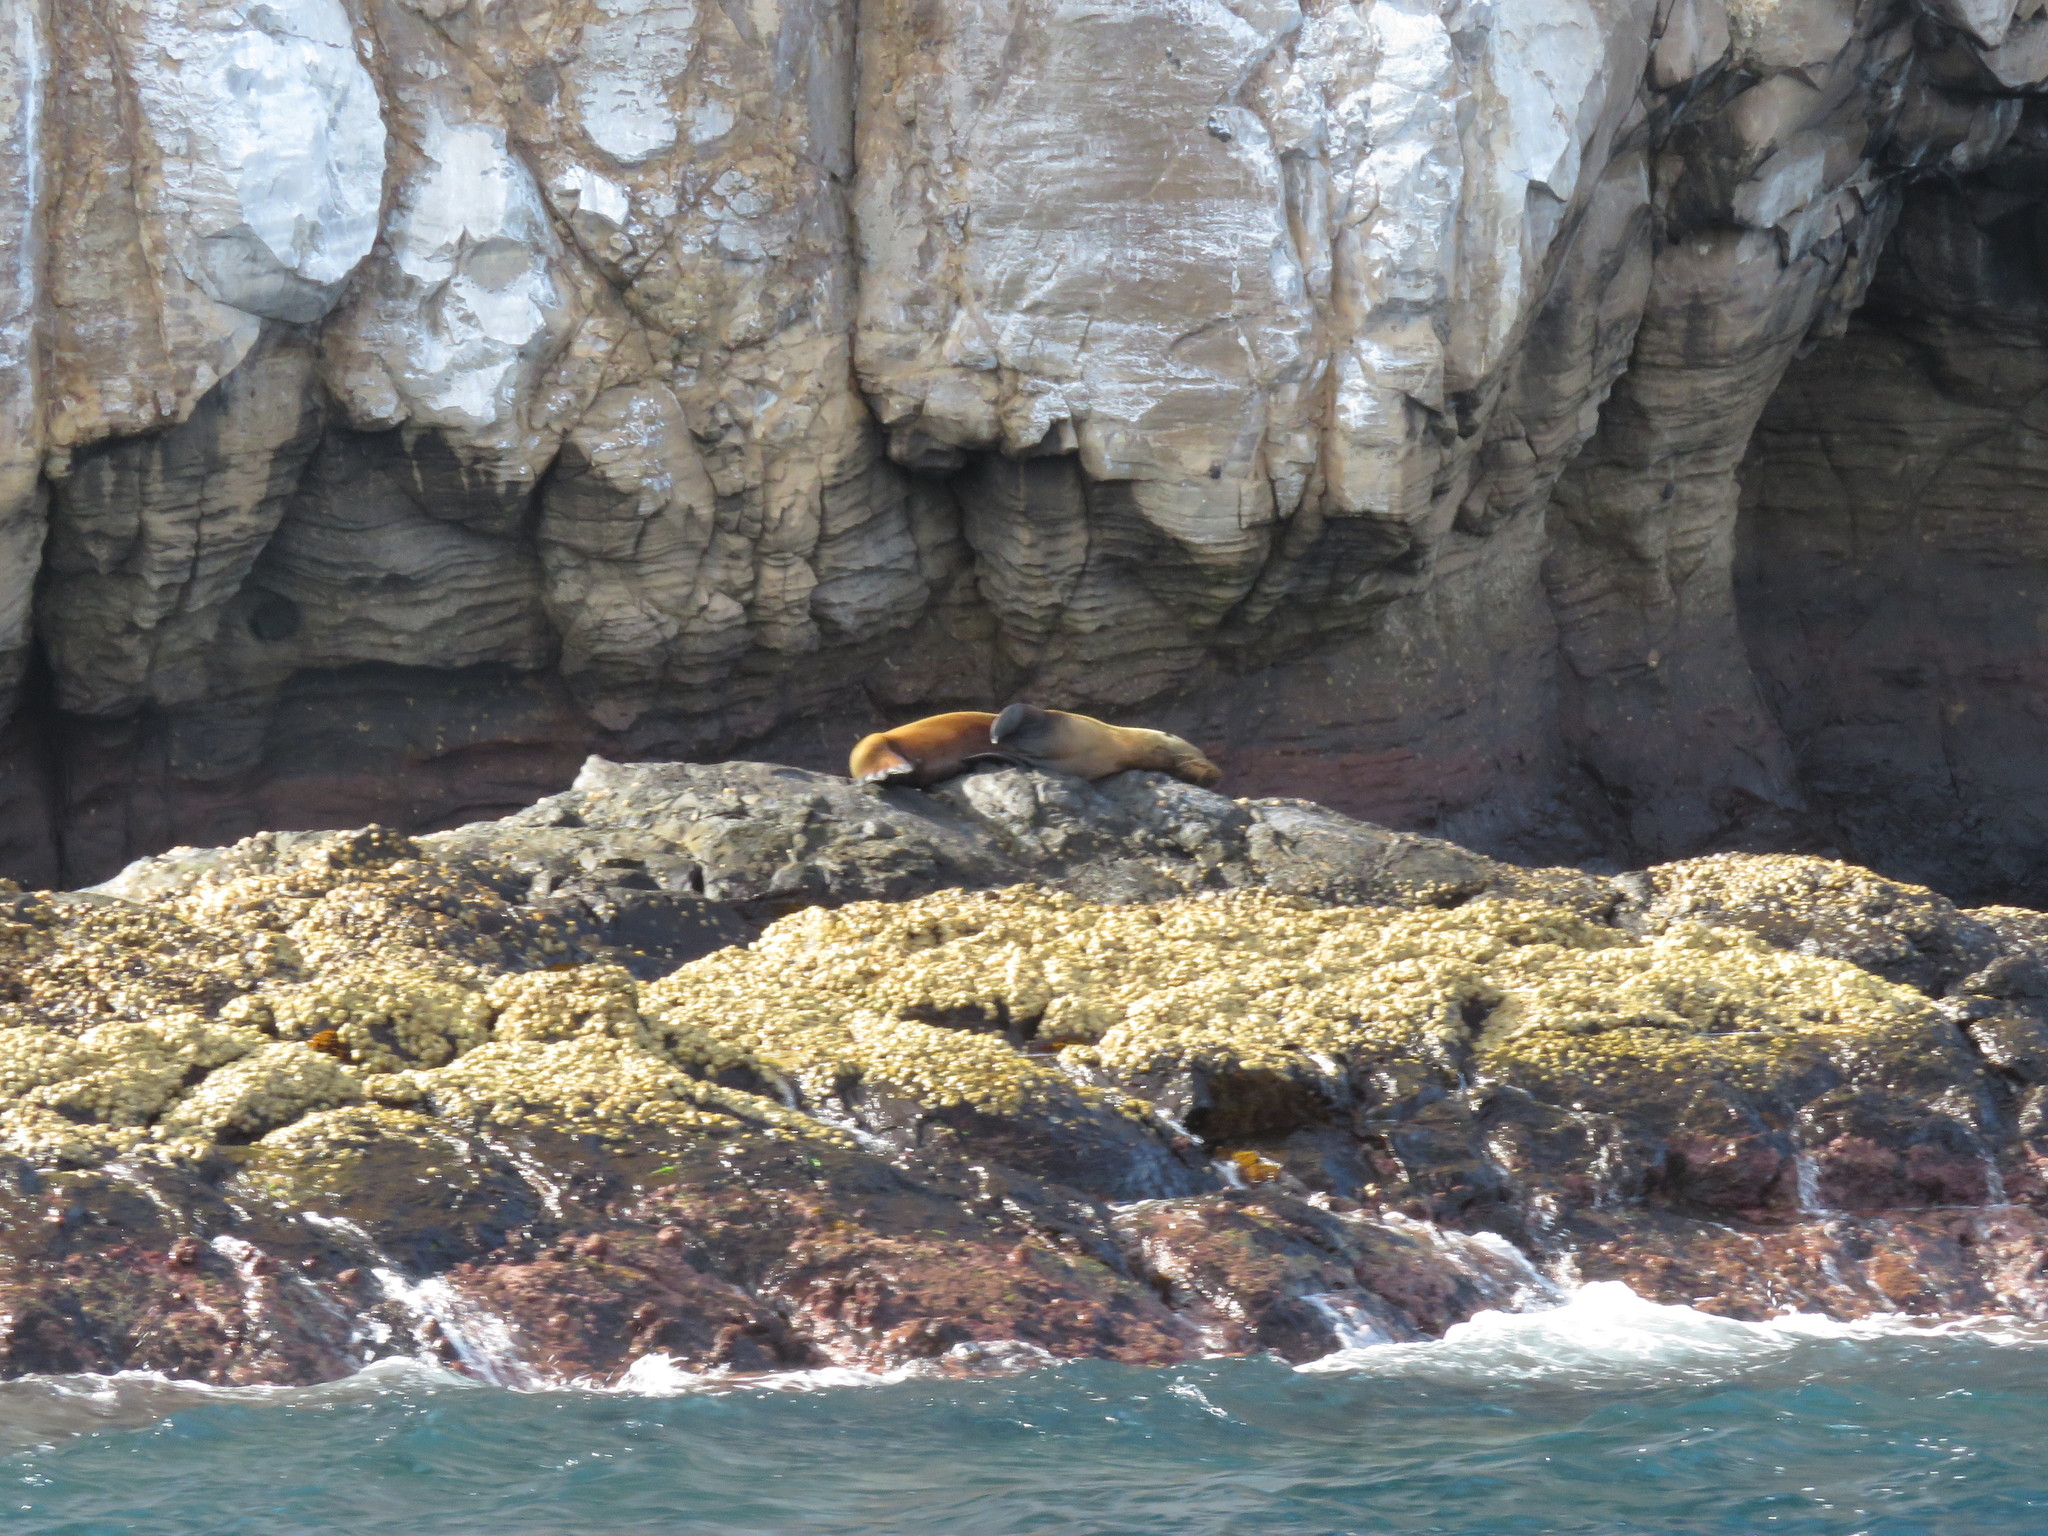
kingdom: Animalia
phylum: Chordata
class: Mammalia
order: Carnivora
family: Otariidae
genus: Zalophus
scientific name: Zalophus wollebaeki
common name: Galapagos sea lion
